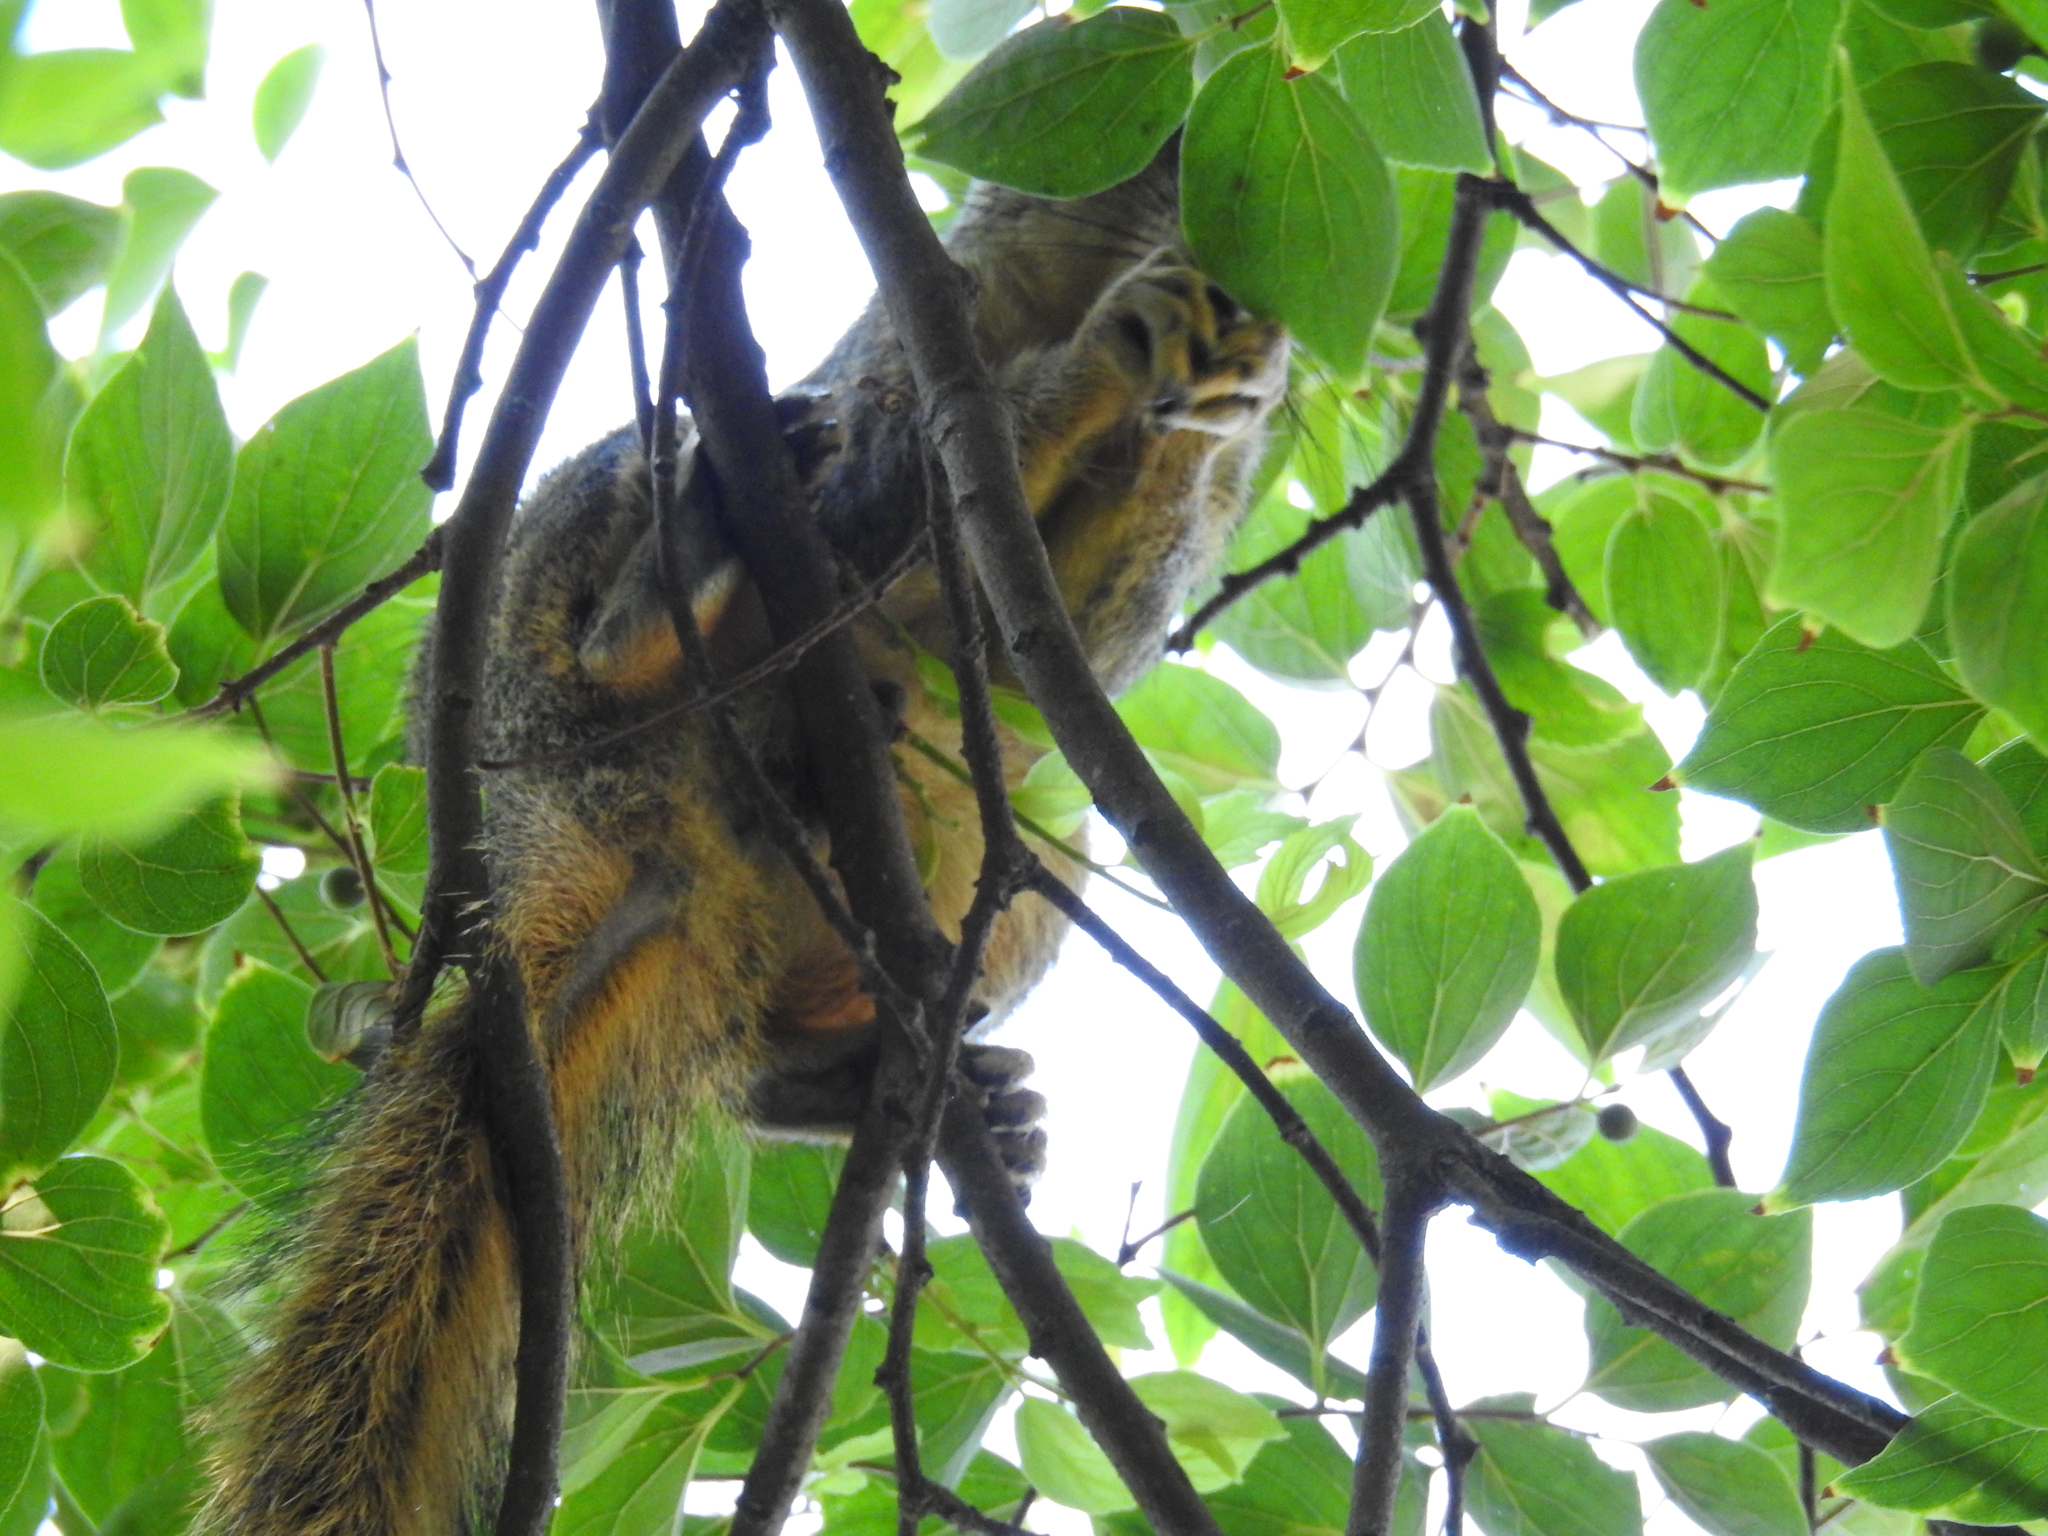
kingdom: Animalia
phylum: Chordata
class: Mammalia
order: Rodentia
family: Sciuridae
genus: Sciurus
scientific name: Sciurus niger
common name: Fox squirrel
